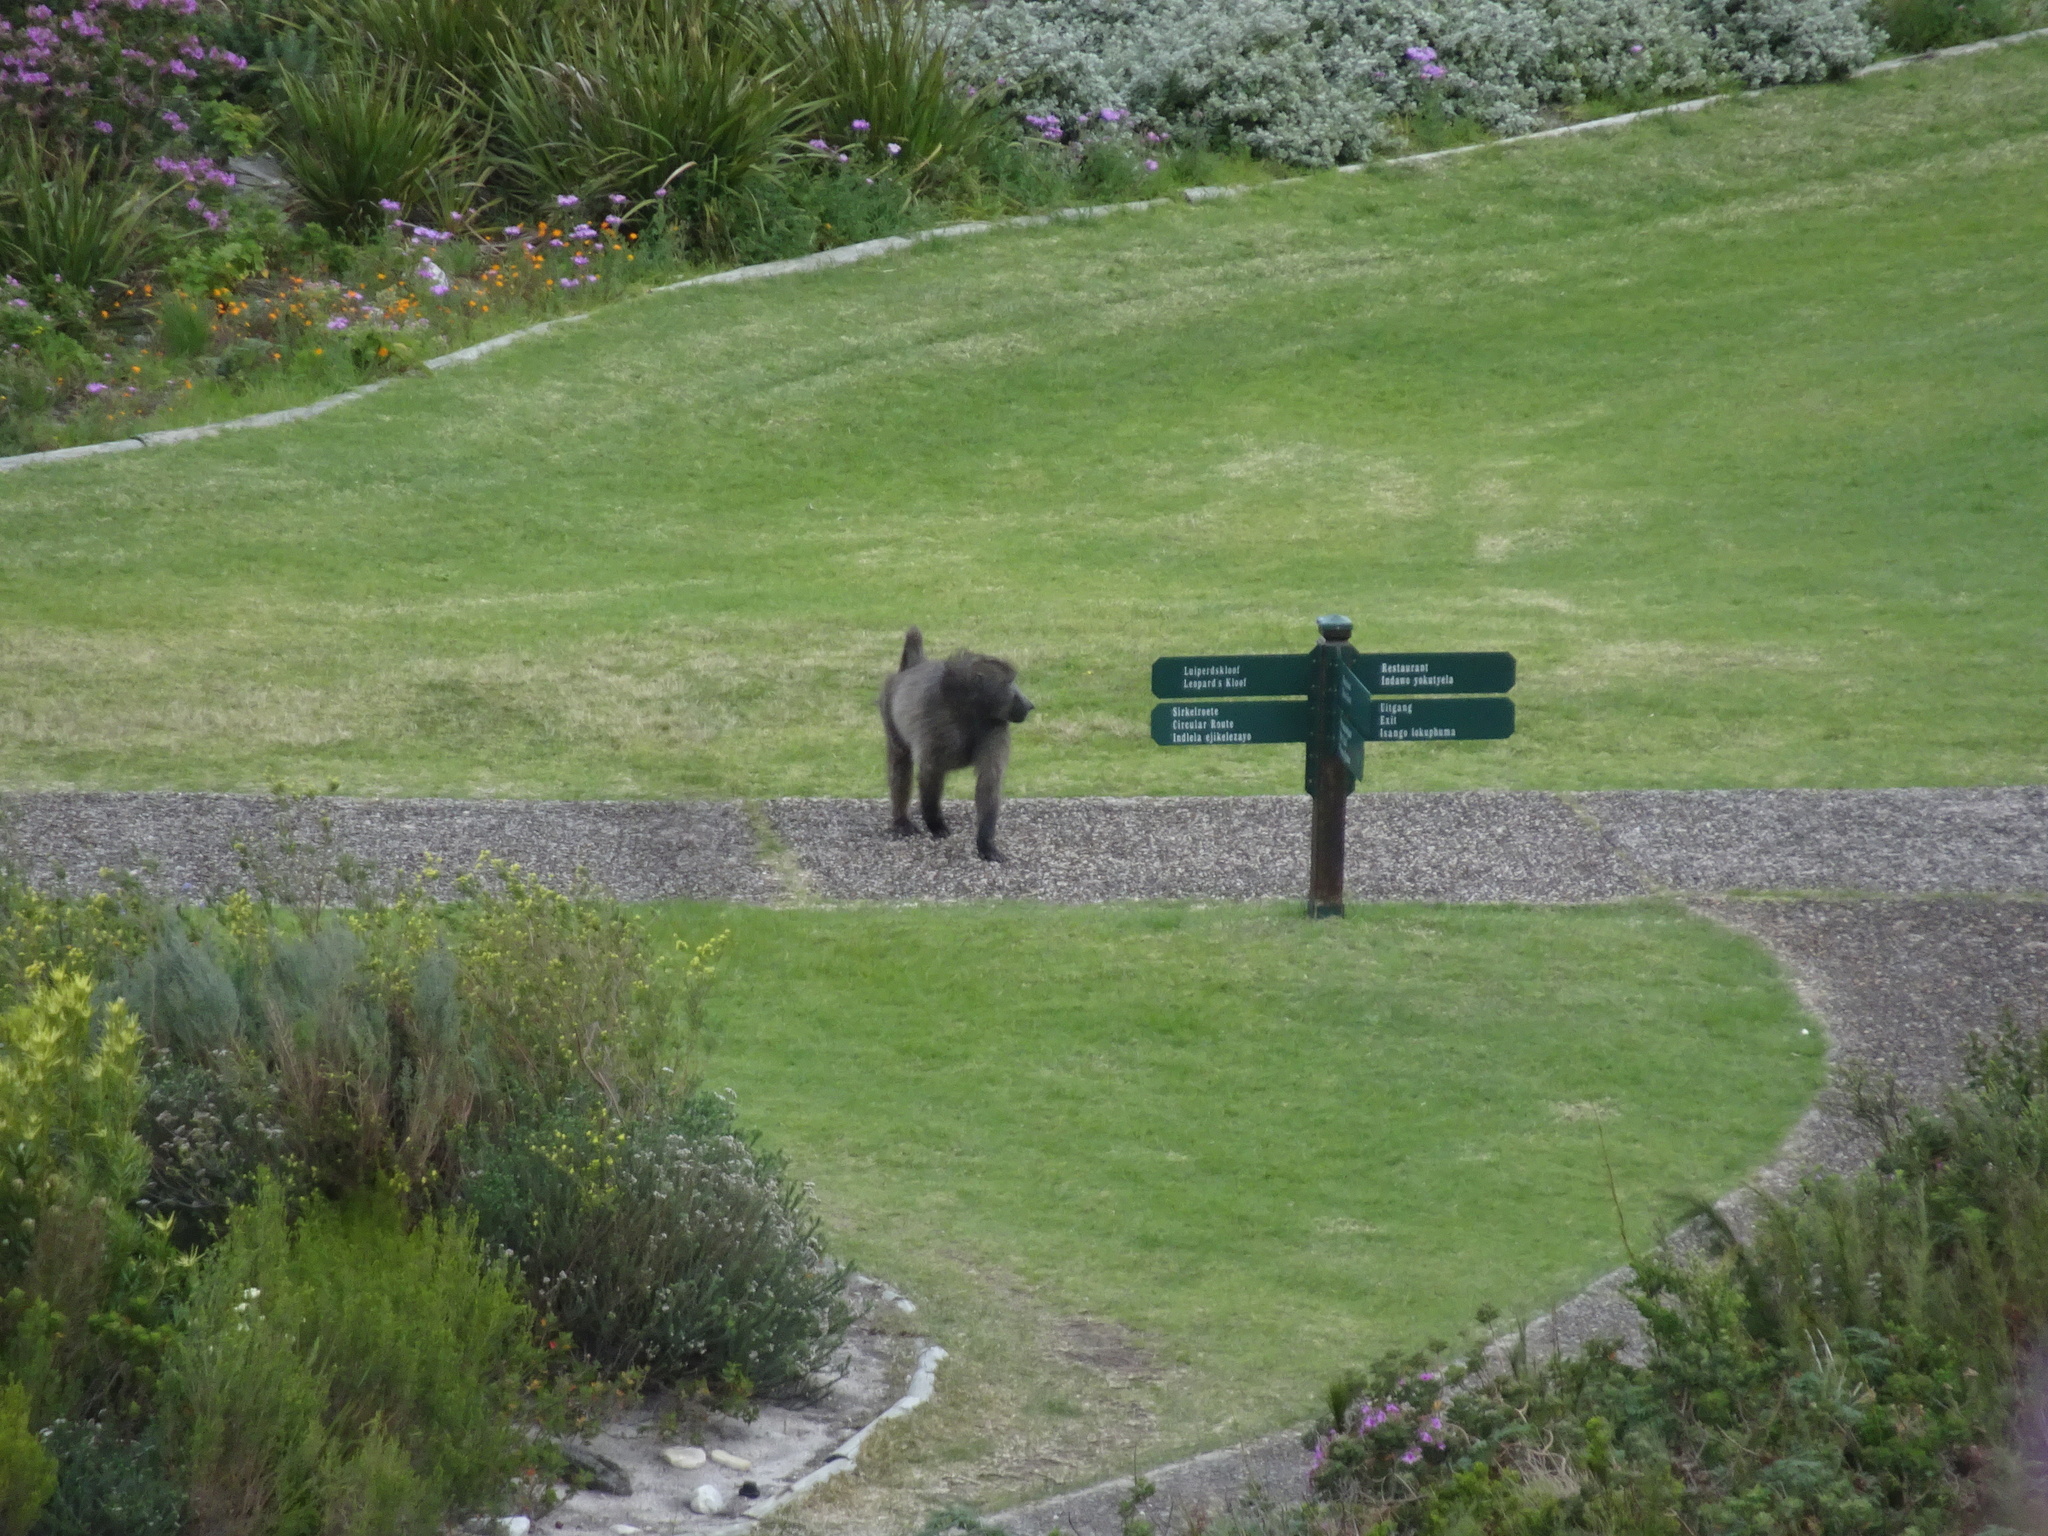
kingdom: Animalia
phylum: Chordata
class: Mammalia
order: Primates
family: Cercopithecidae
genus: Papio
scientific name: Papio ursinus
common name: Chacma baboon
